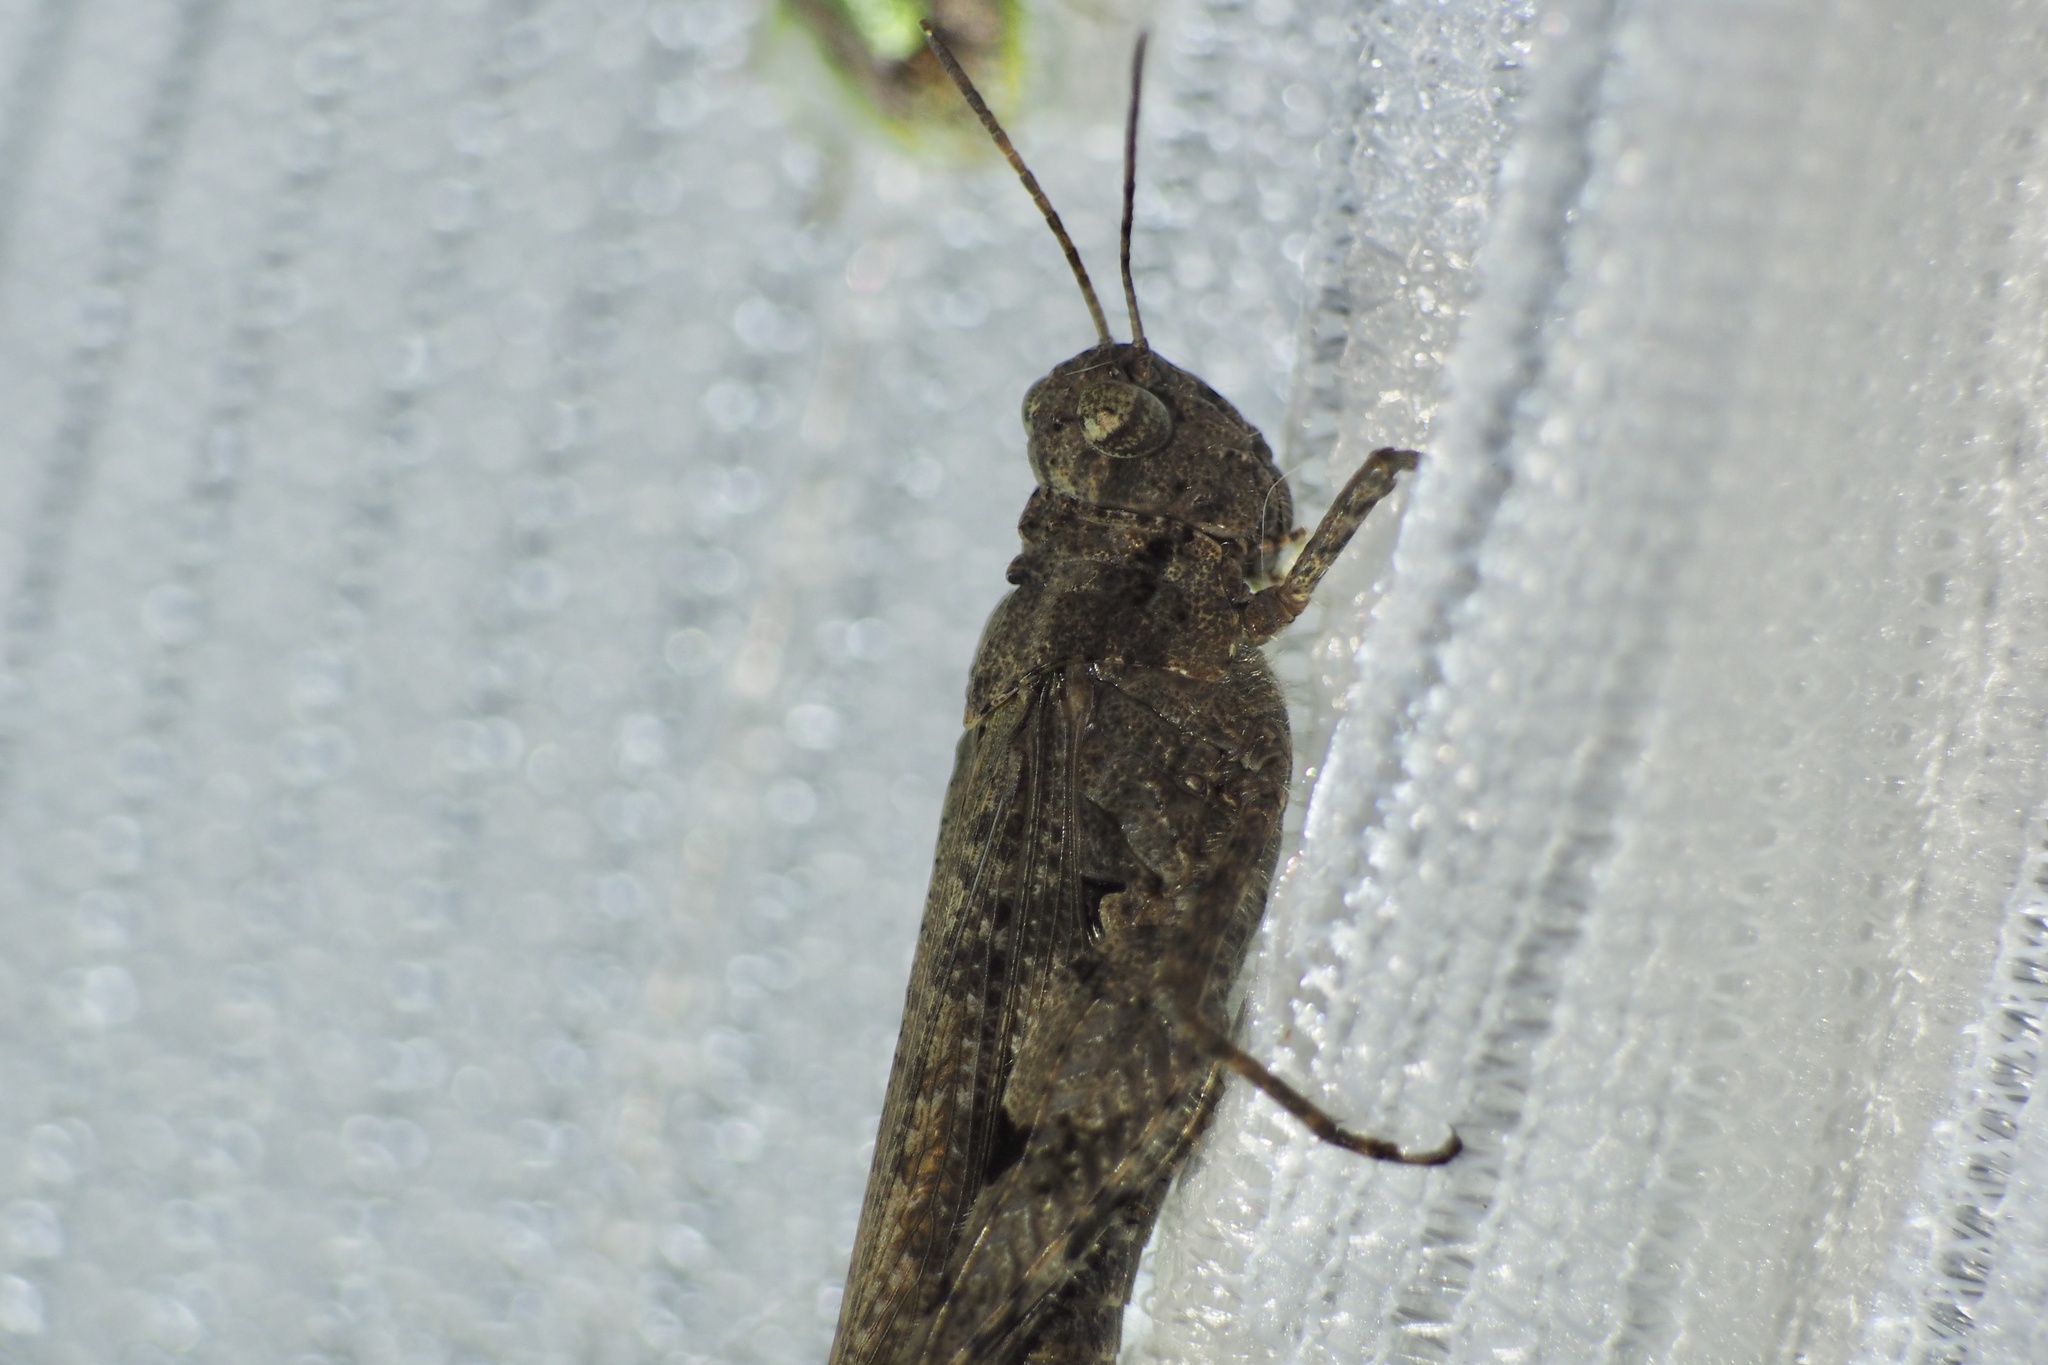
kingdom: Animalia
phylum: Arthropoda
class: Insecta
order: Orthoptera
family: Acrididae
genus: Trilophidia
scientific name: Trilophidia annulata
